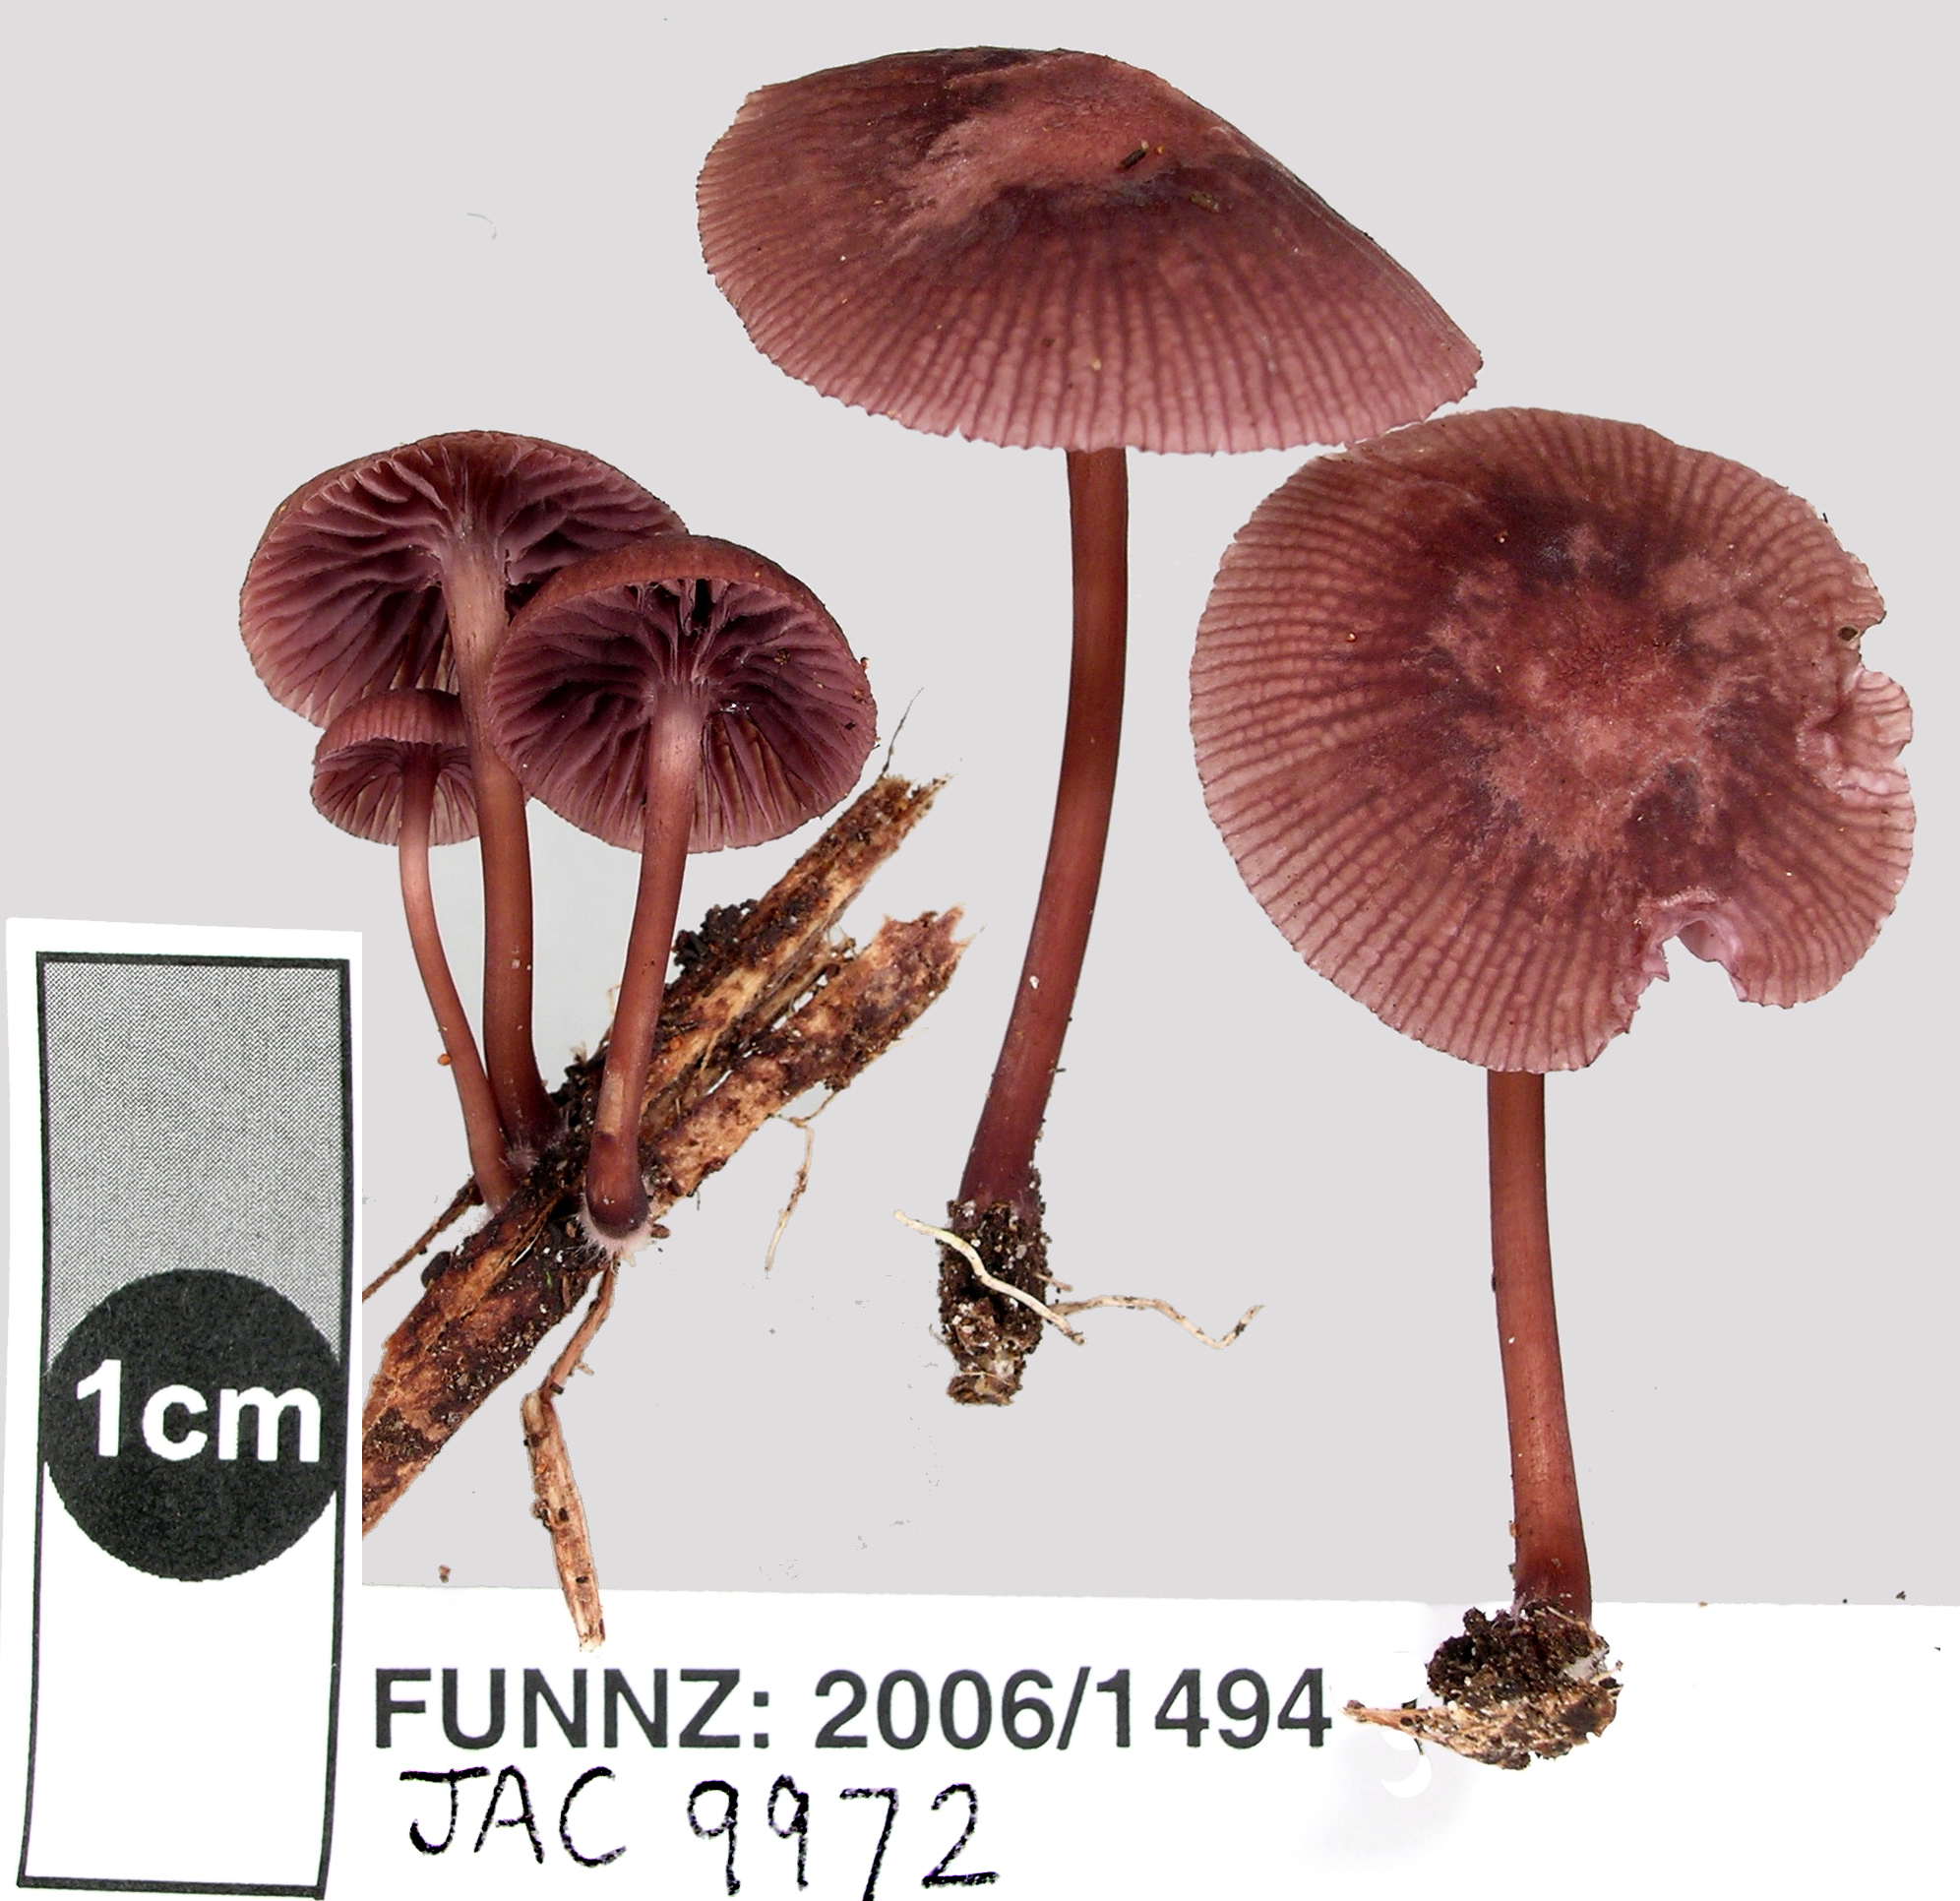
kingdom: Fungi
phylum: Basidiomycota
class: Agaricomycetes
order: Agaricales
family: Mycenaceae
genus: Mycena
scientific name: Mycena podocarpi
